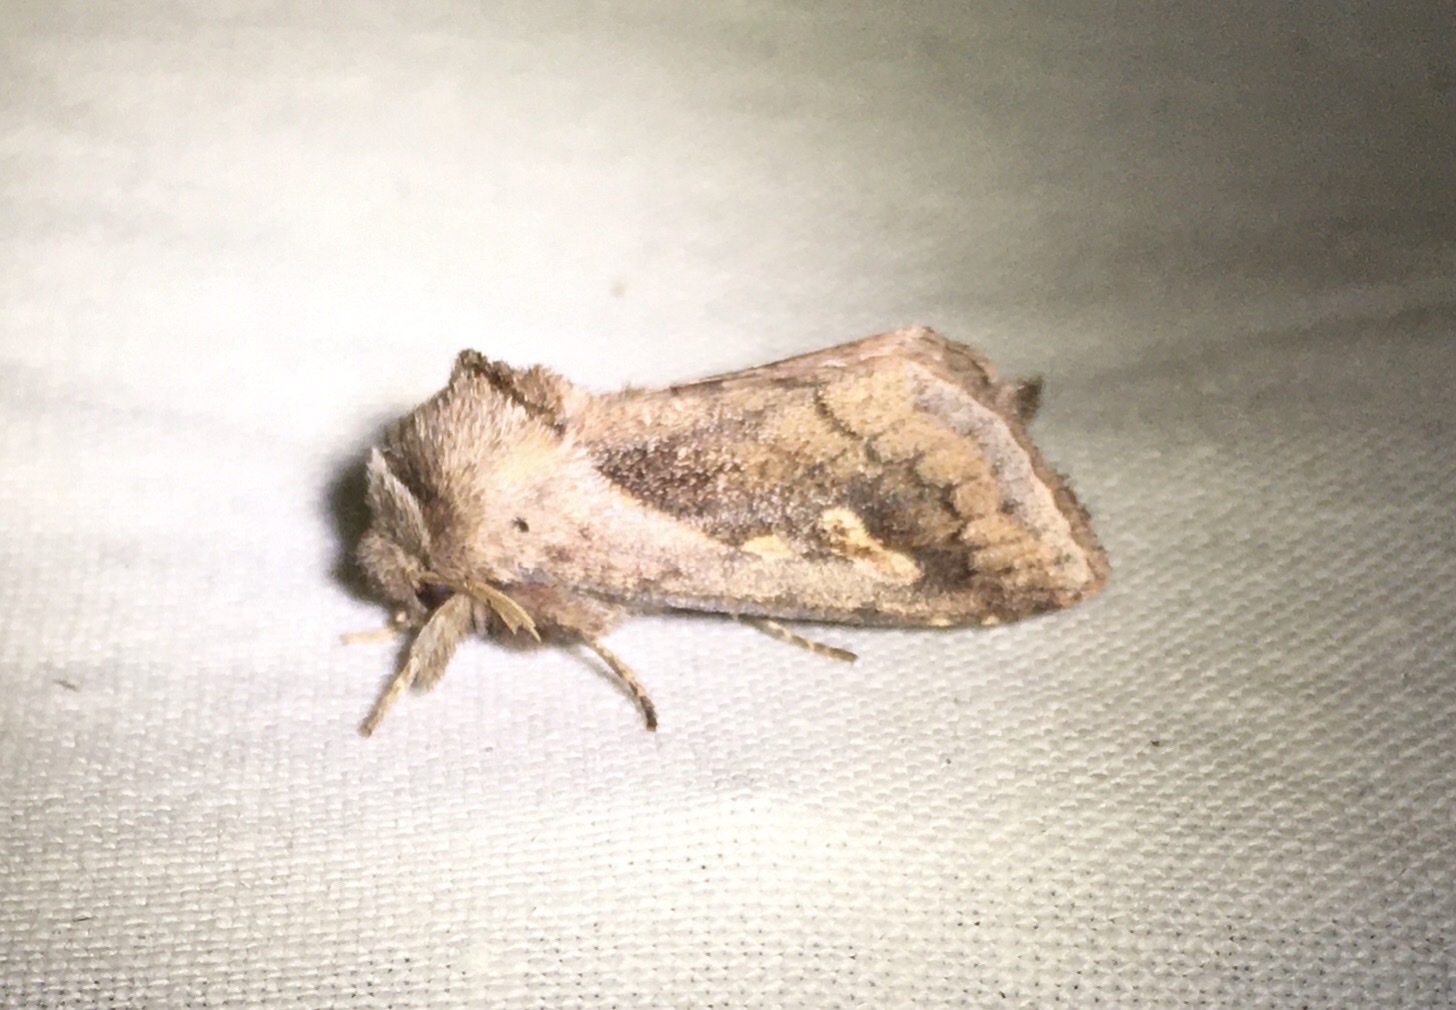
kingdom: Animalia
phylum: Arthropoda
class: Insecta
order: Lepidoptera
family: Noctuidae
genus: Bellura
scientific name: Bellura obliqua
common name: Cattail borer moth
